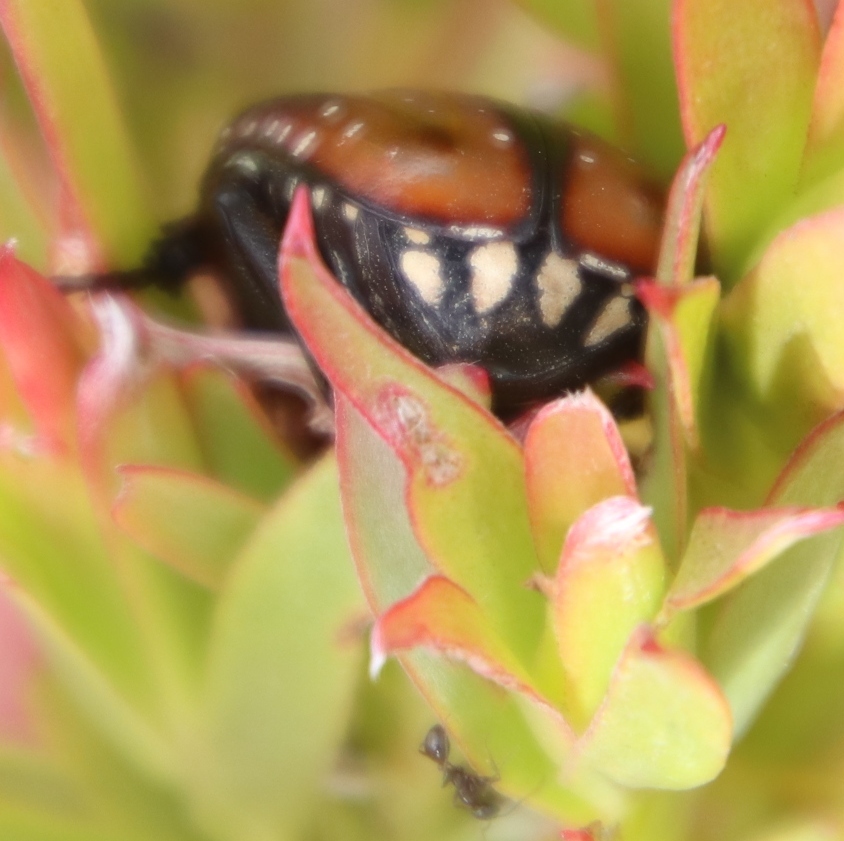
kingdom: Animalia
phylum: Arthropoda
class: Insecta
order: Coleoptera
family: Scarabaeidae
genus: Trichostetha
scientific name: Trichostetha capensis
